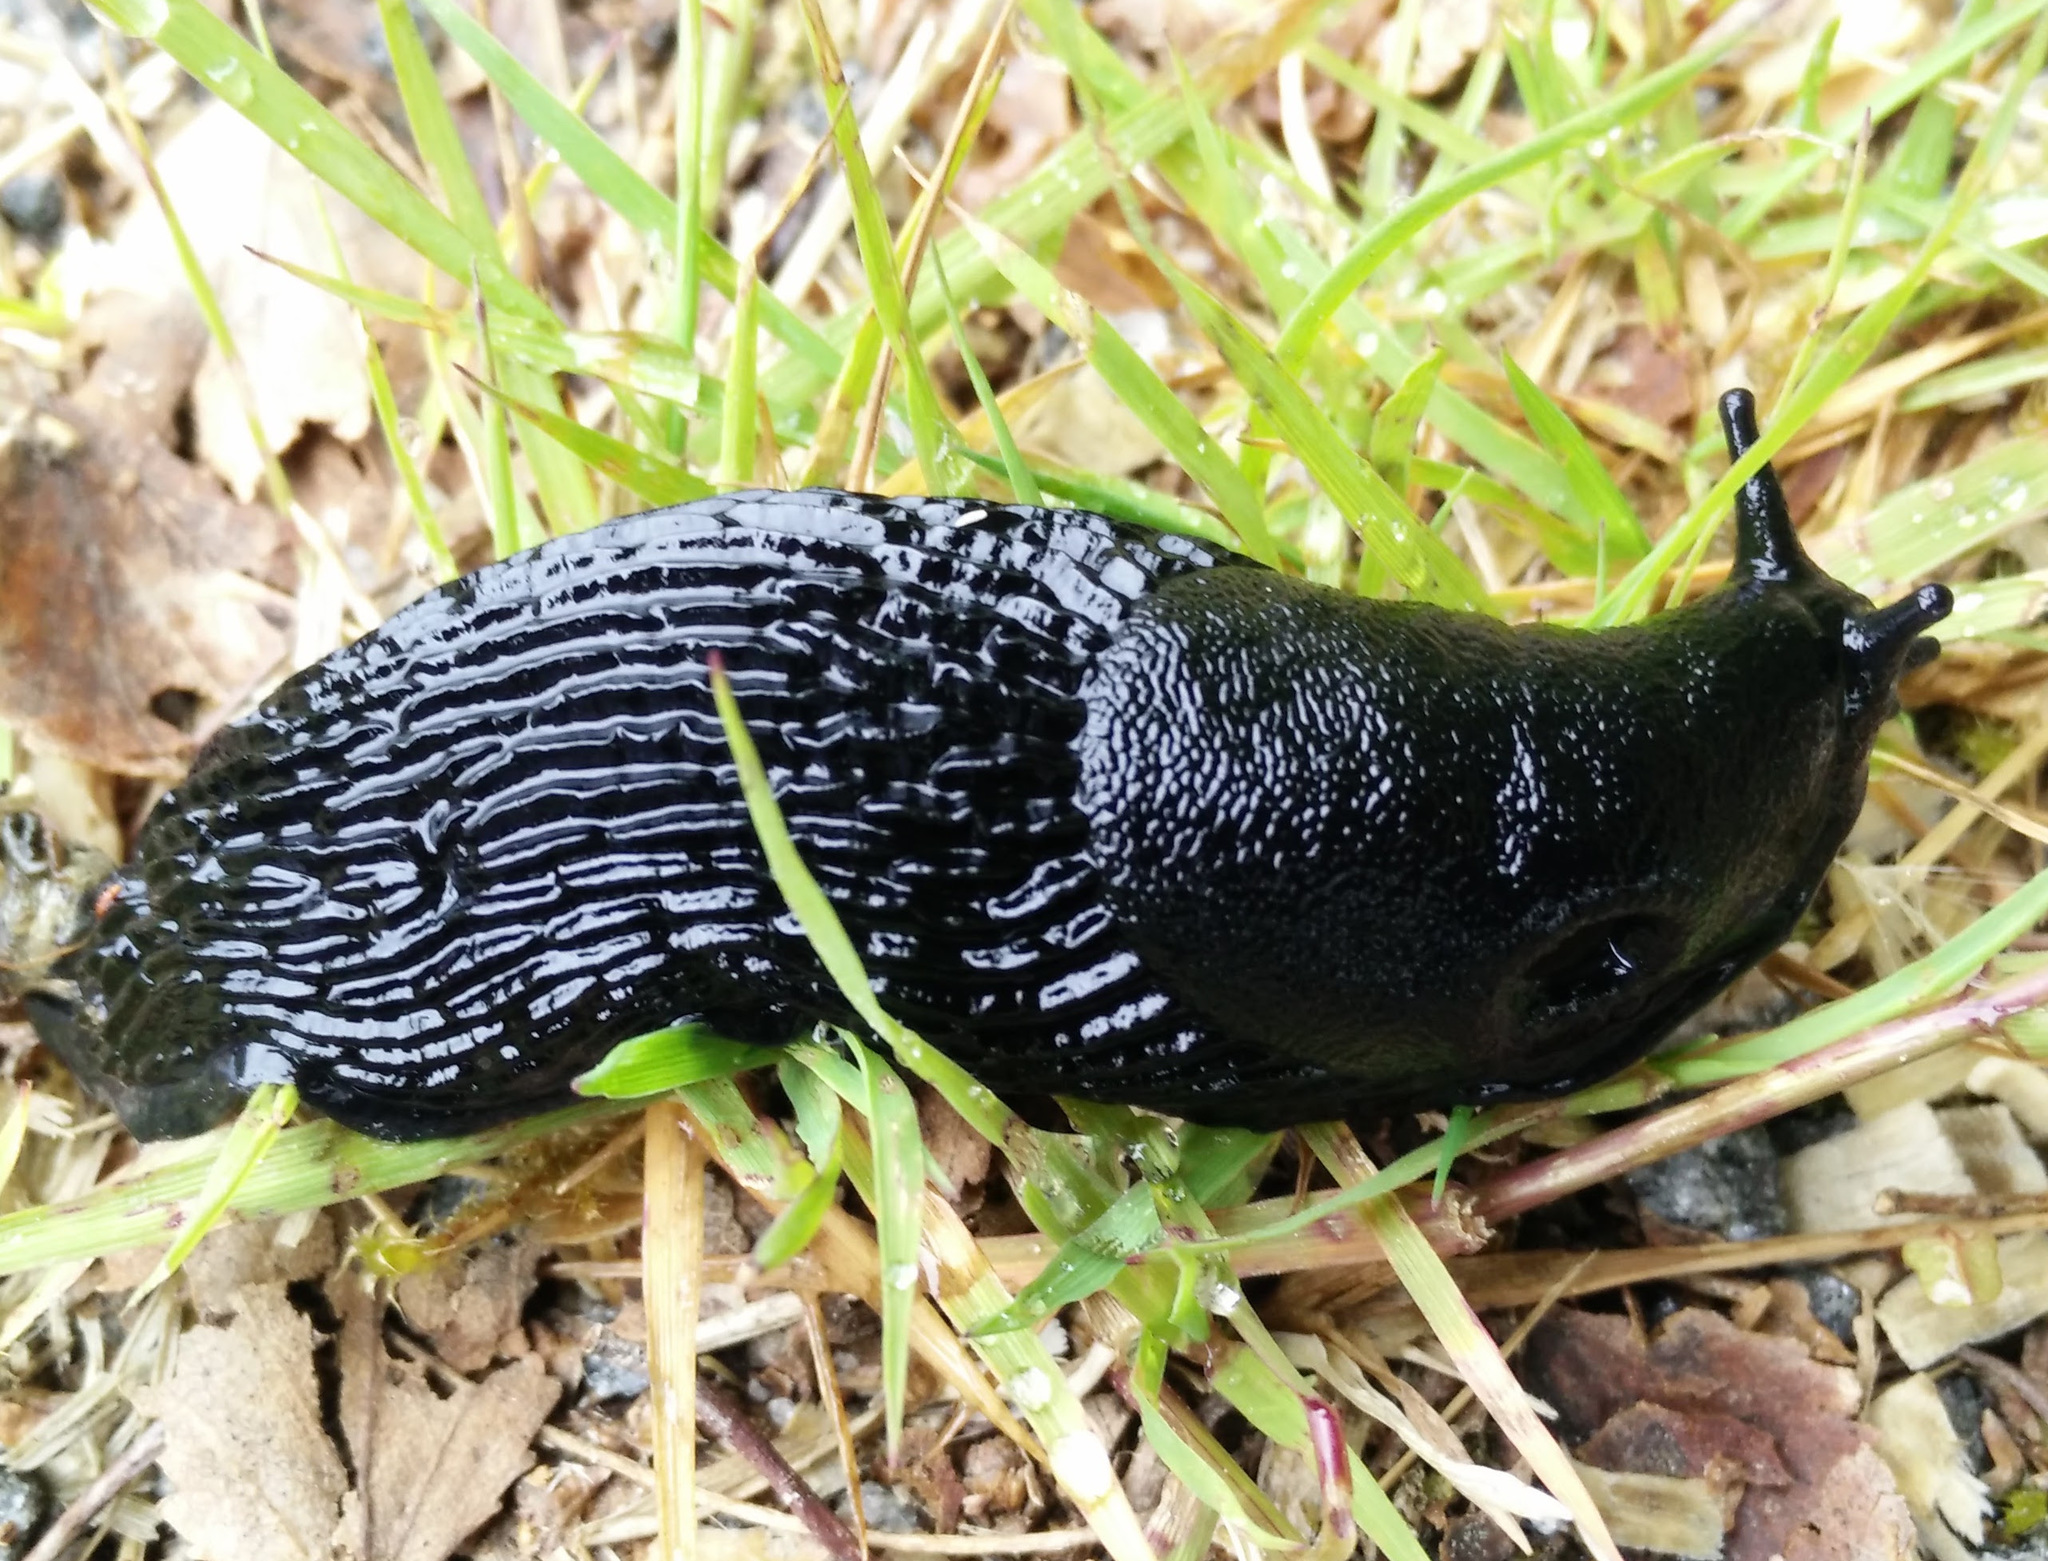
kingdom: Animalia
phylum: Mollusca
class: Gastropoda
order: Stylommatophora
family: Arionidae
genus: Arion
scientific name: Arion ater
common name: Black arion
